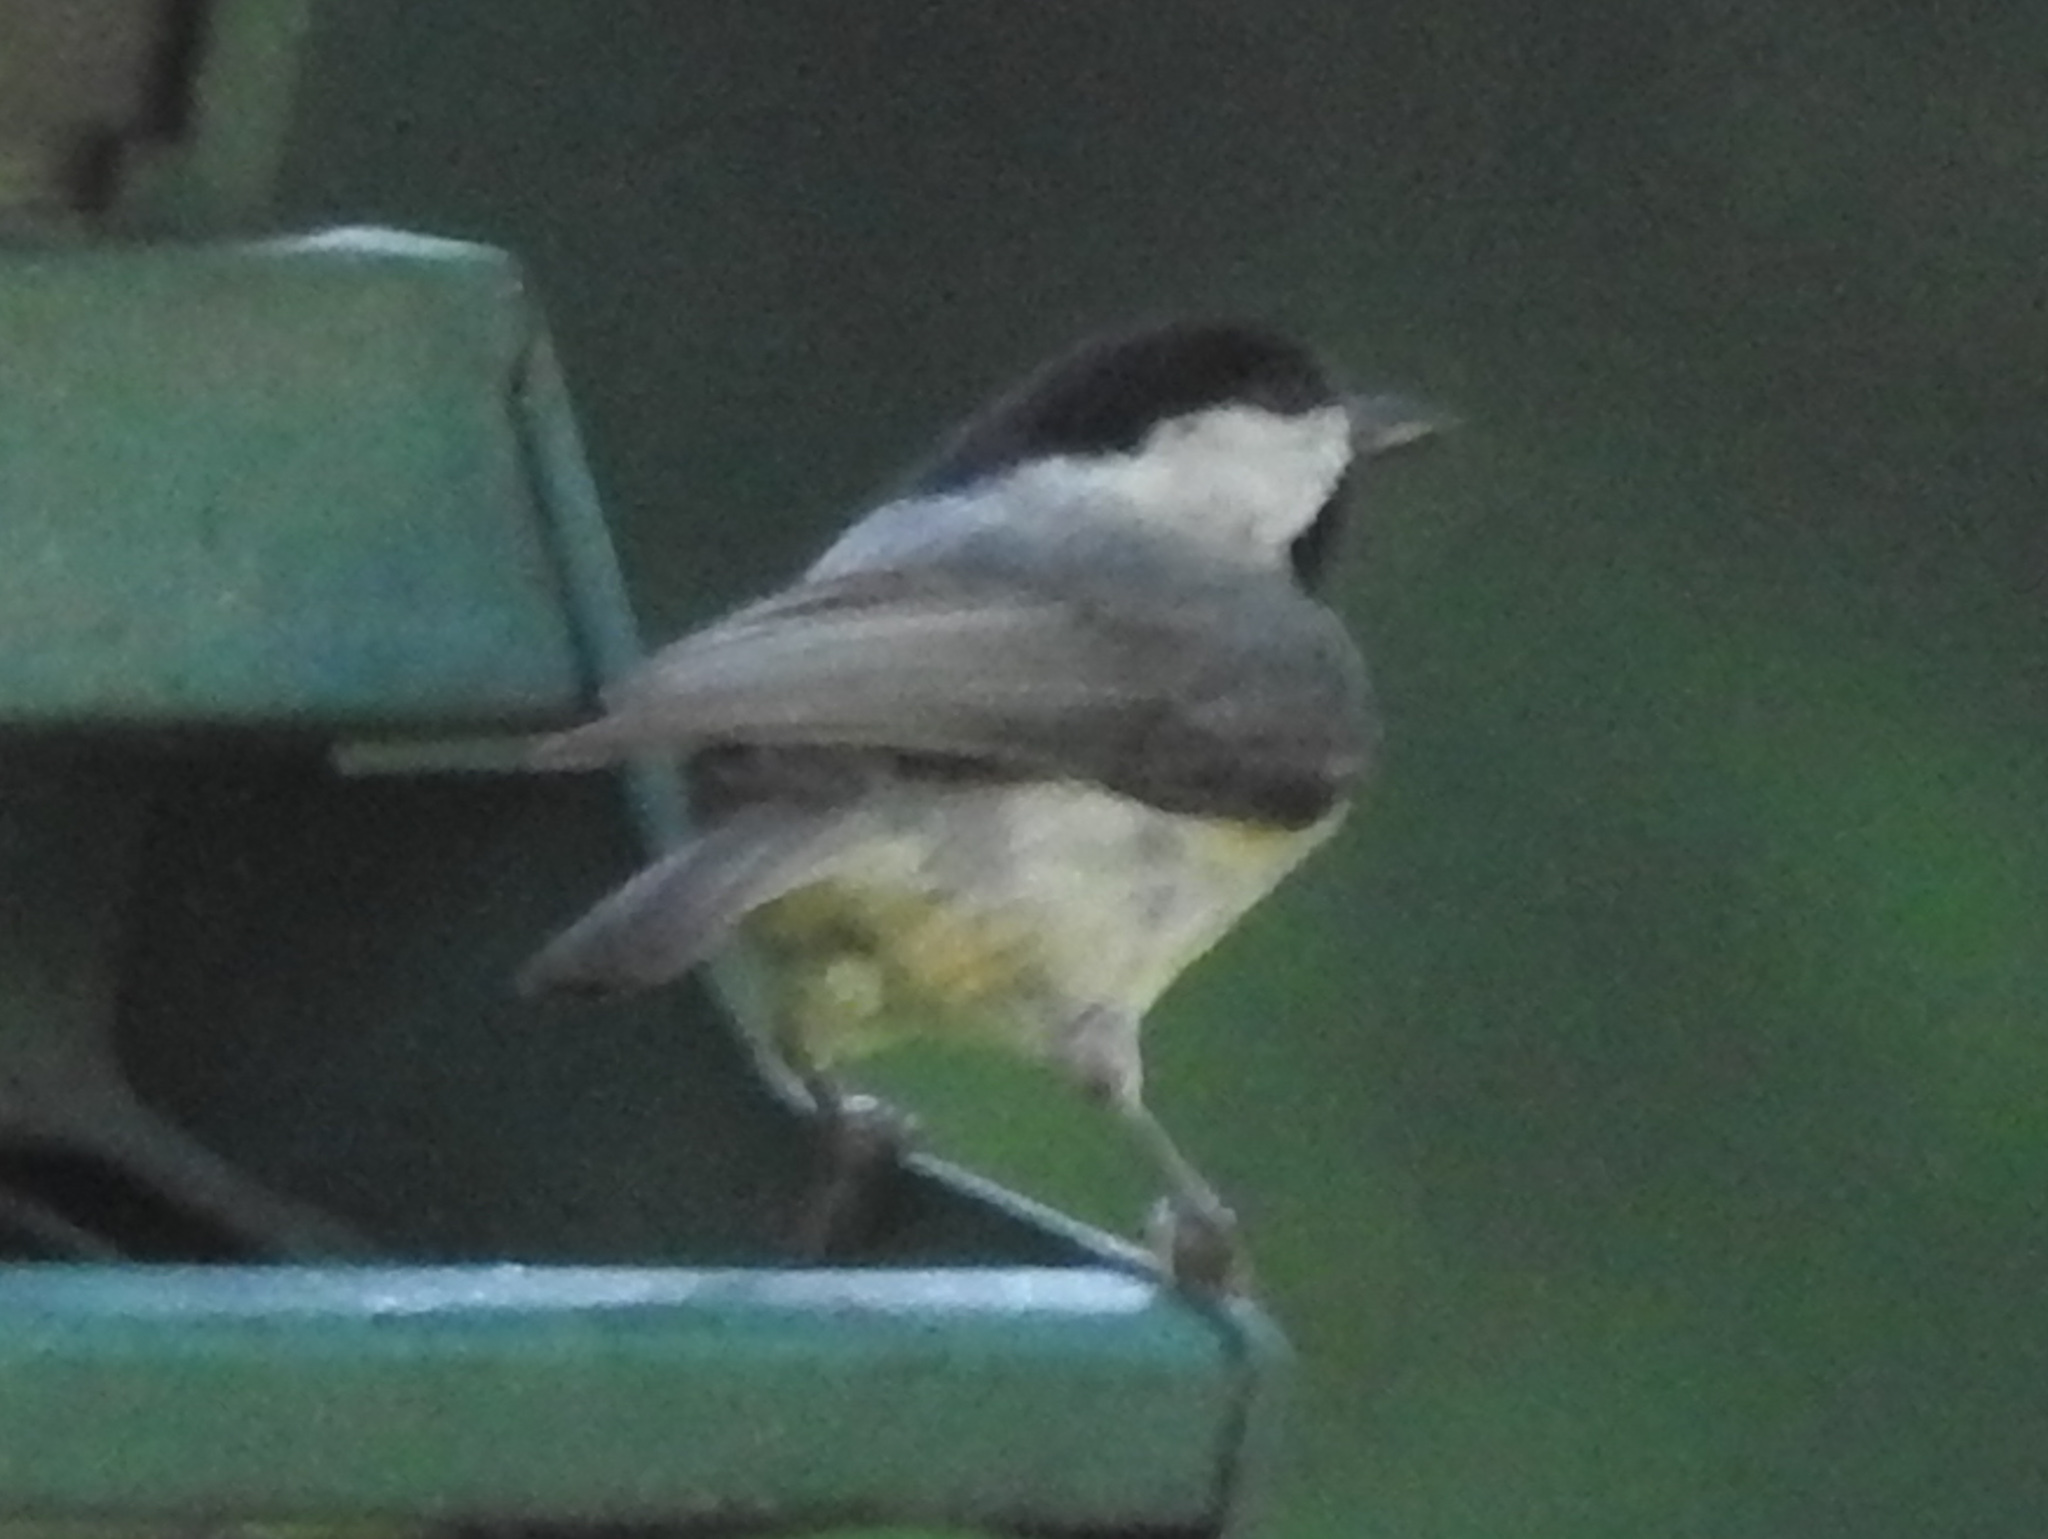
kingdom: Animalia
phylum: Chordata
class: Aves
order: Passeriformes
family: Paridae
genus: Poecile
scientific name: Poecile carolinensis
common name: Carolina chickadee
